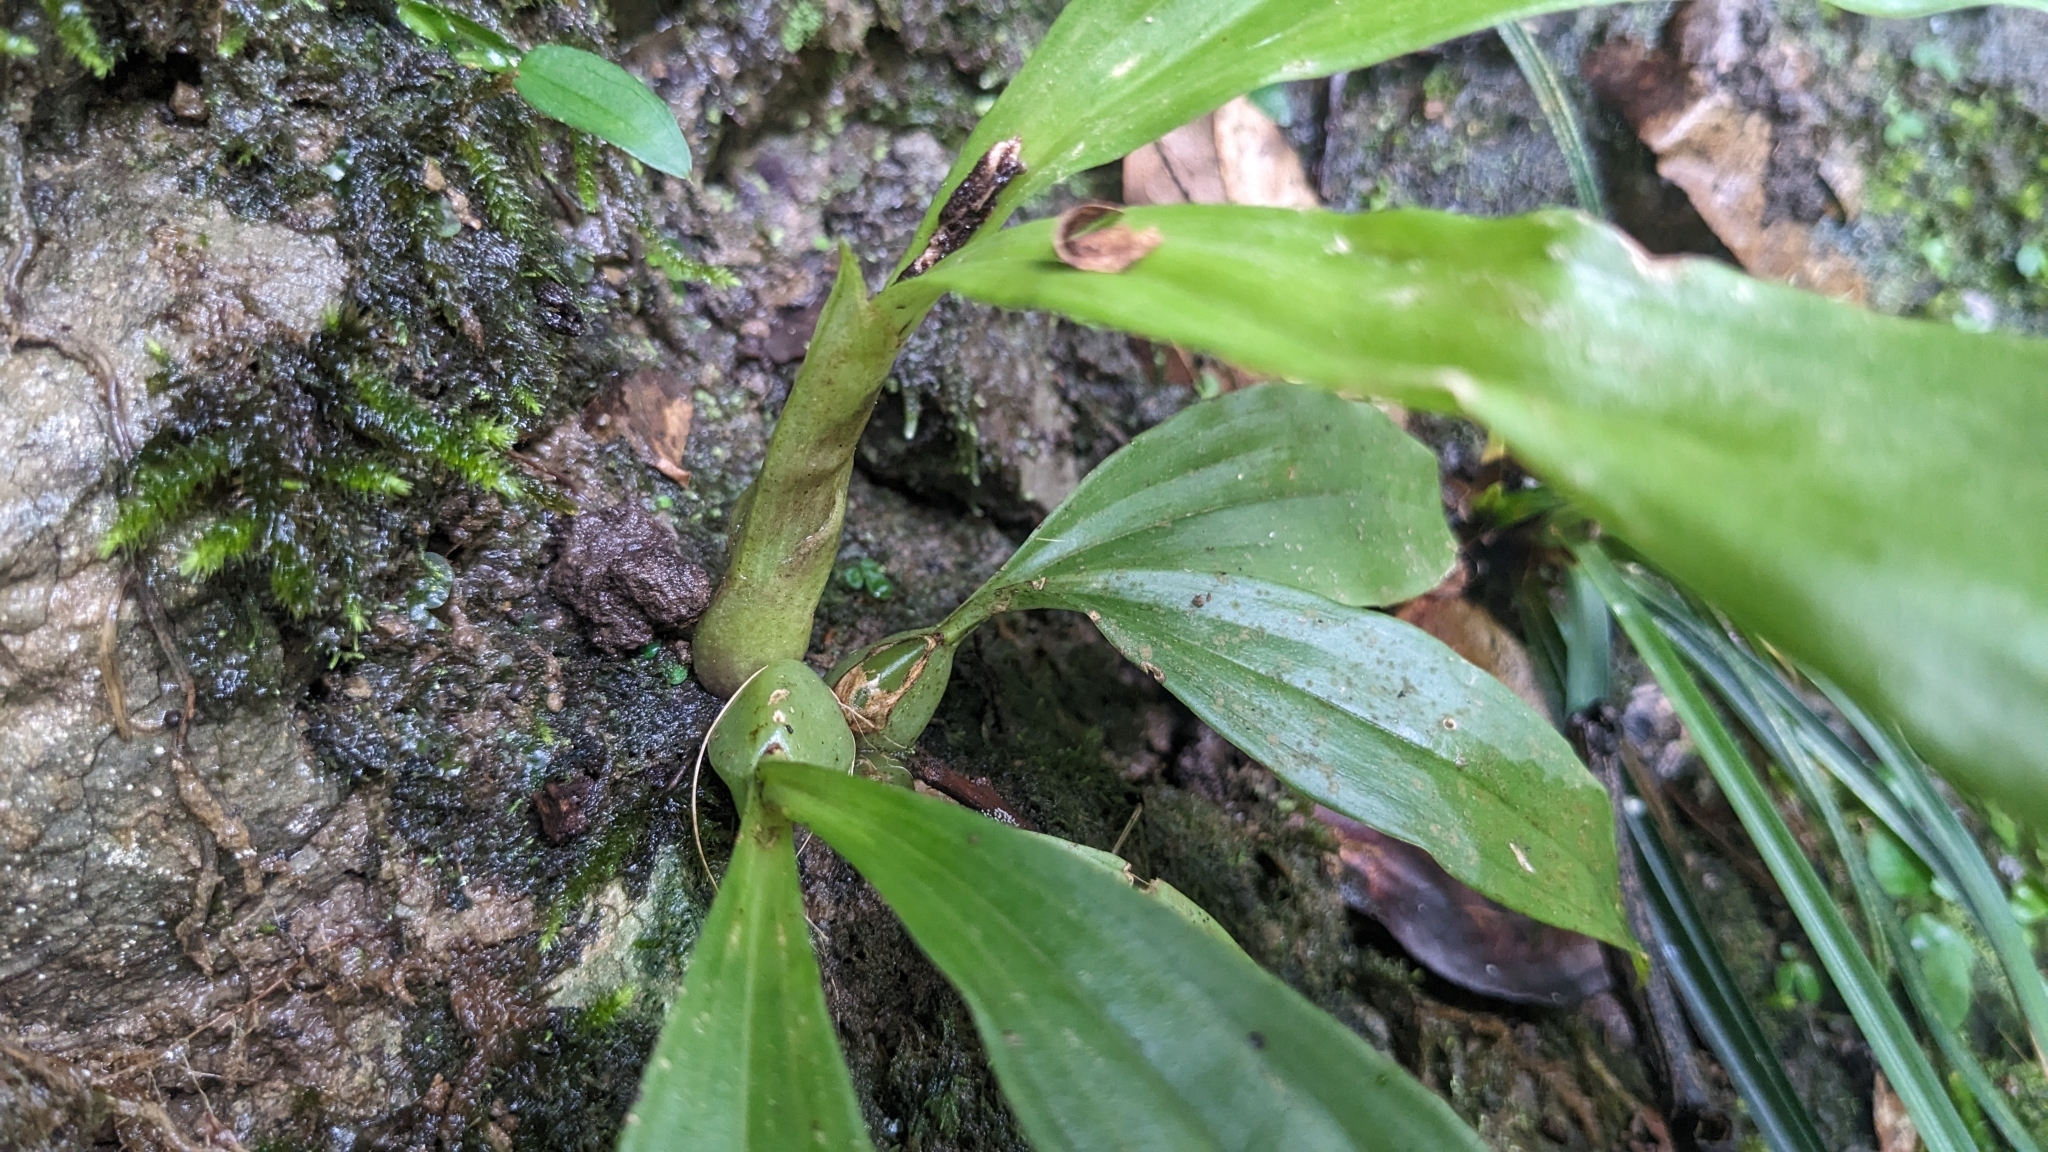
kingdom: Plantae
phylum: Tracheophyta
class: Liliopsida
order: Asparagales
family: Orchidaceae
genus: Eria
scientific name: Eria scabrilinguis
